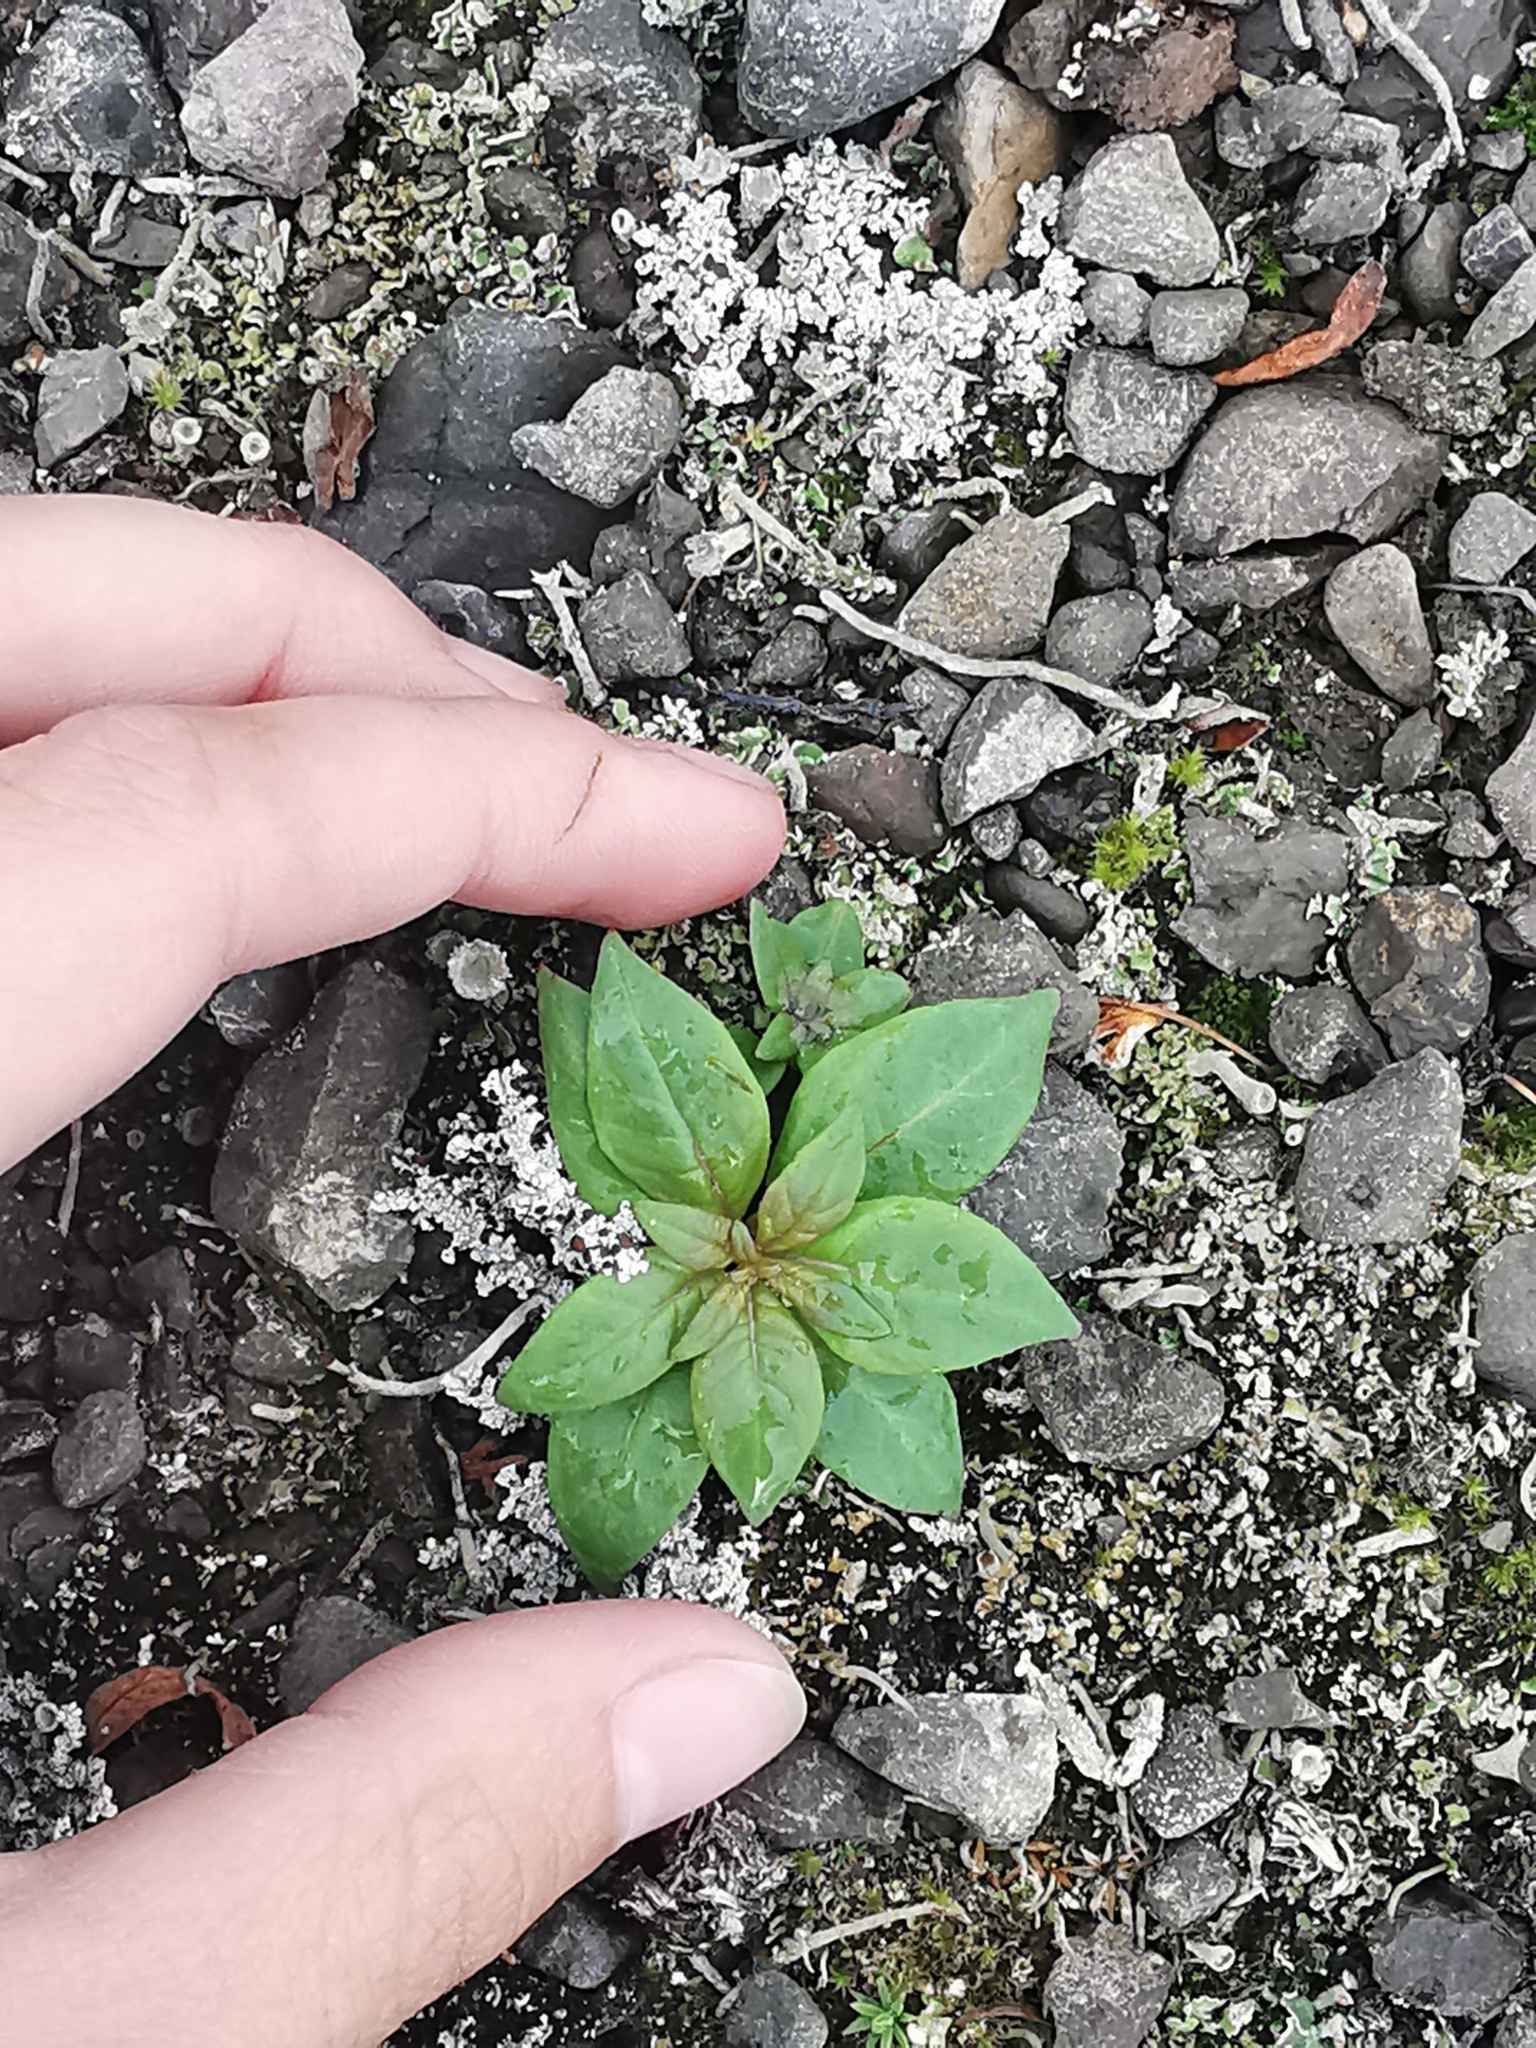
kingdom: Plantae
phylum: Tracheophyta
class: Magnoliopsida
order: Myrtales
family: Onagraceae
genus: Chamaenerion
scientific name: Chamaenerion angustifolium
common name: Fireweed
